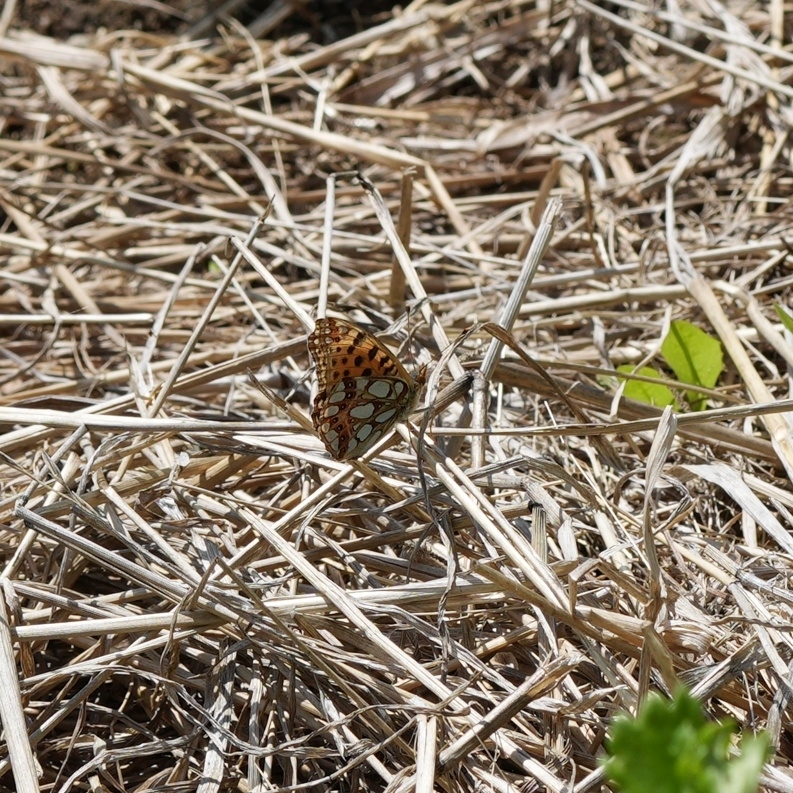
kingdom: Animalia
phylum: Arthropoda
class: Insecta
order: Lepidoptera
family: Nymphalidae
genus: Issoria
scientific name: Issoria lathonia
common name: Queen of spain fritillary
